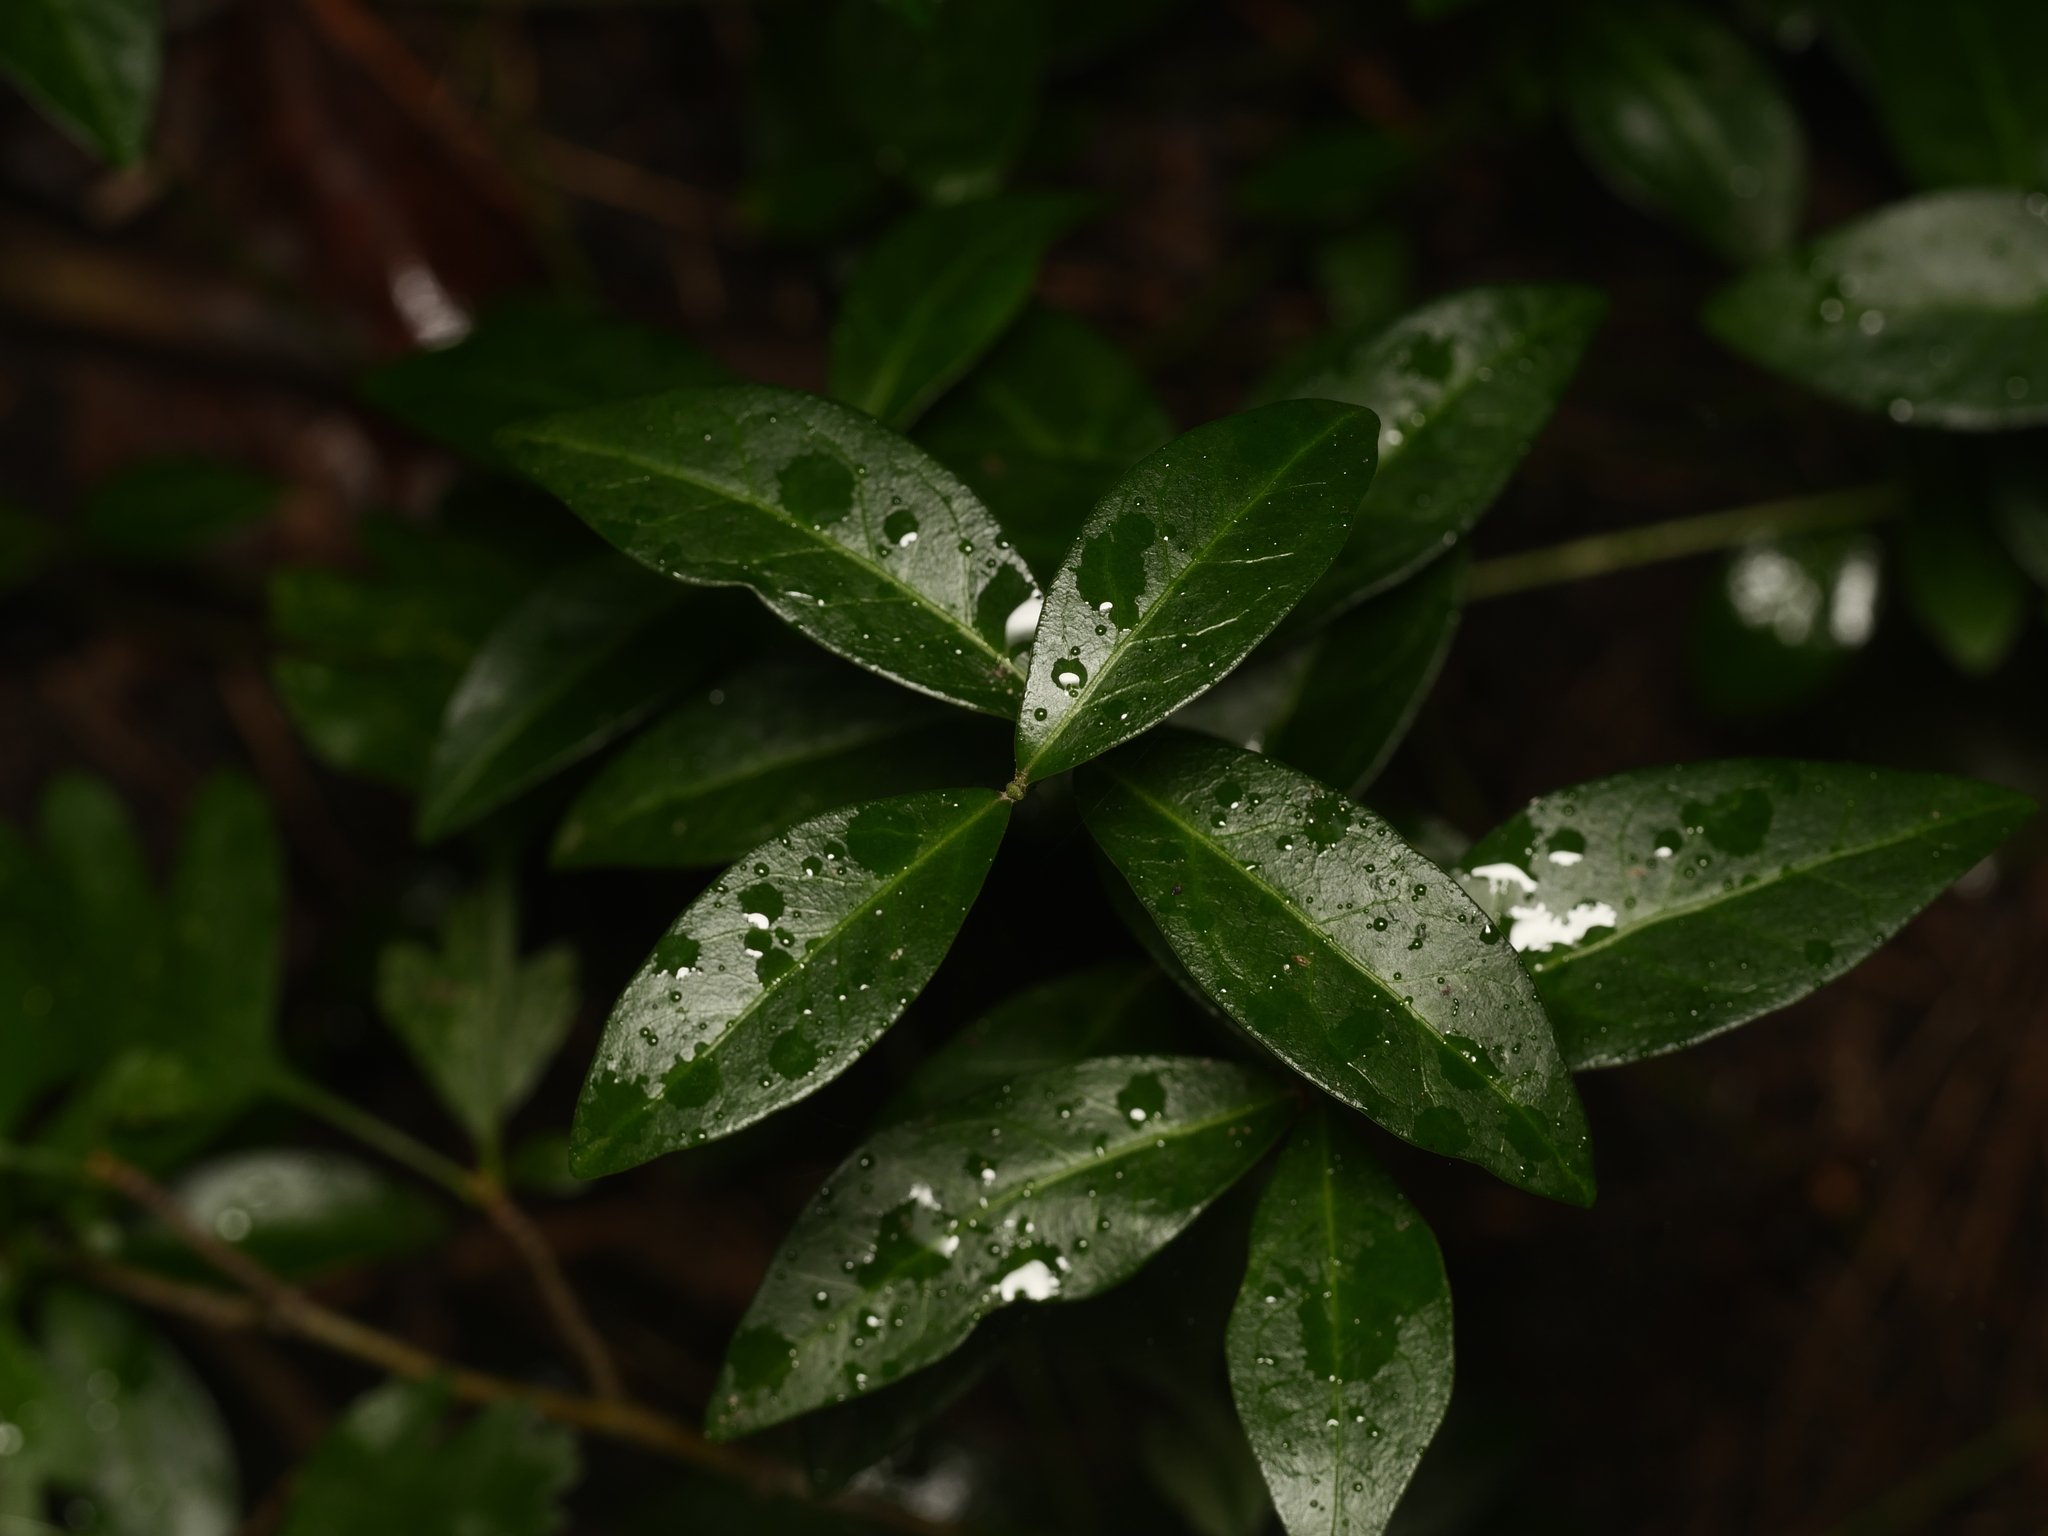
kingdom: Plantae
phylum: Tracheophyta
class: Magnoliopsida
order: Gentianales
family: Apocynaceae
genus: Vinca
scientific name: Vinca minor
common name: Lesser periwinkle
